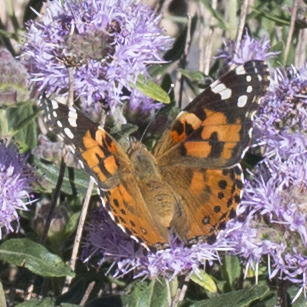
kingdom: Animalia
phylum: Arthropoda
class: Insecta
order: Lepidoptera
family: Nymphalidae
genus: Vanessa
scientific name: Vanessa cardui
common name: Painted lady
